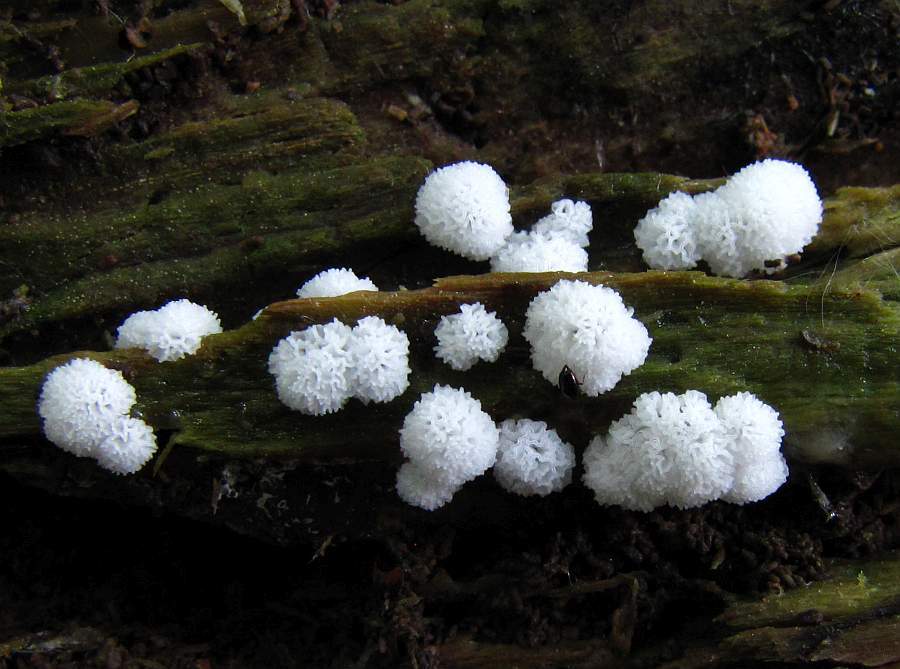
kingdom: Protozoa
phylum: Mycetozoa
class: Protosteliomycetes
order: Ceratiomyxales
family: Ceratiomyxaceae
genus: Ceratiomyxa
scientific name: Ceratiomyxa fruticulosa
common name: Honeycomb coral slime mold
